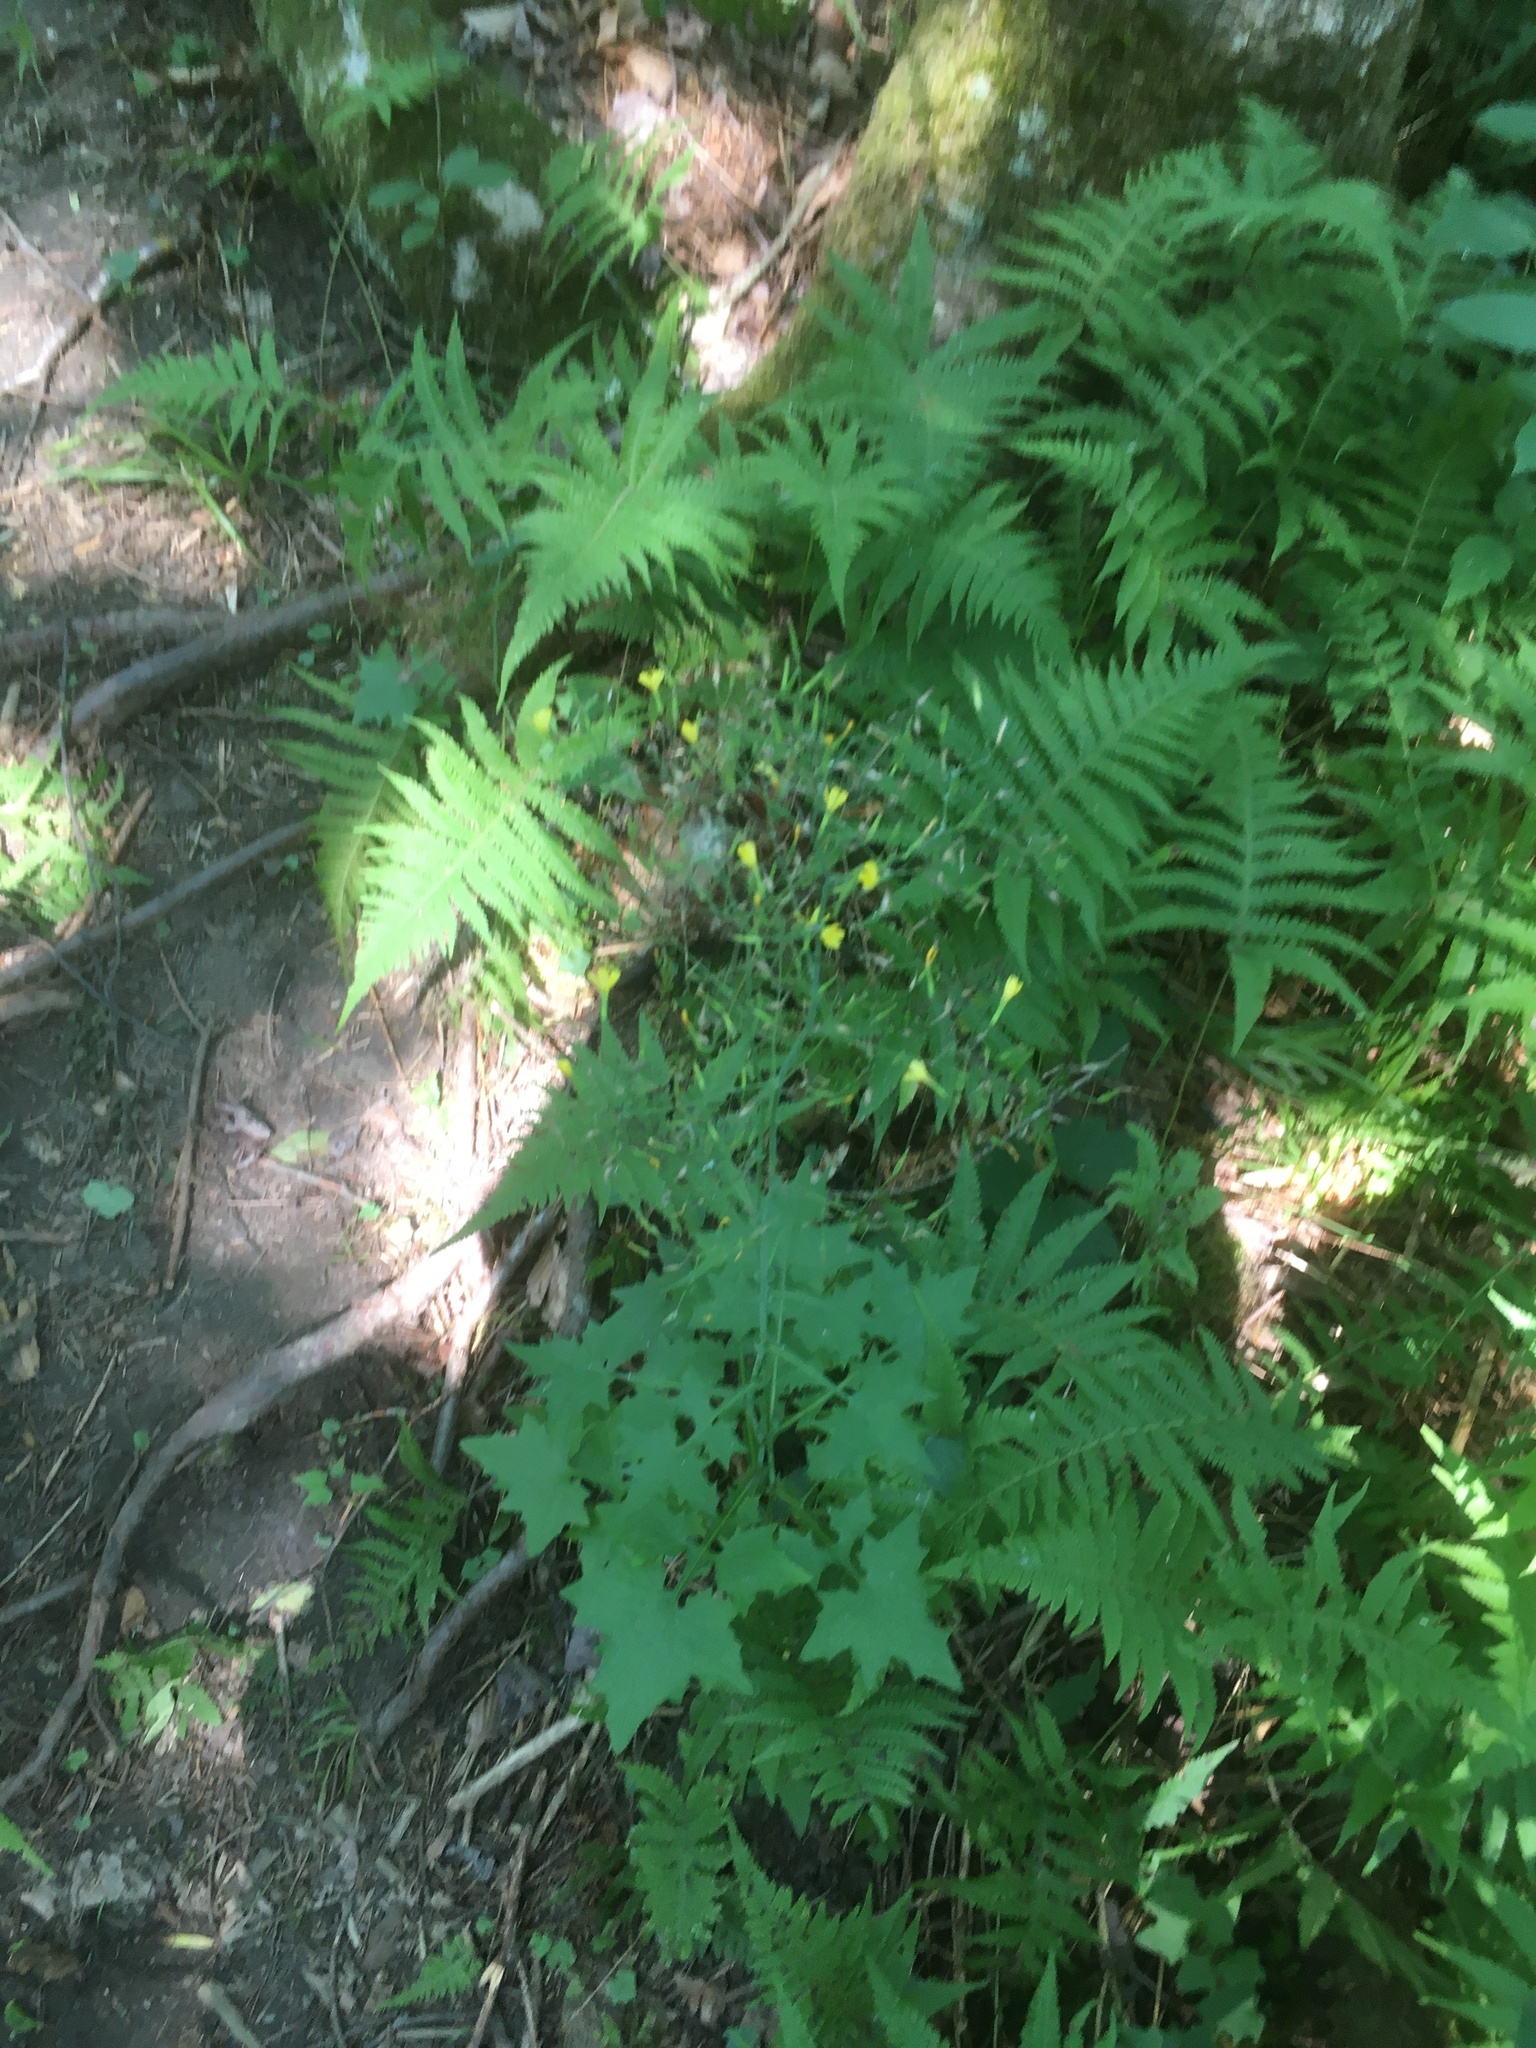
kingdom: Plantae
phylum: Tracheophyta
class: Magnoliopsida
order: Asterales
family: Asteraceae
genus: Mycelis
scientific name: Mycelis muralis
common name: Wall lettuce
